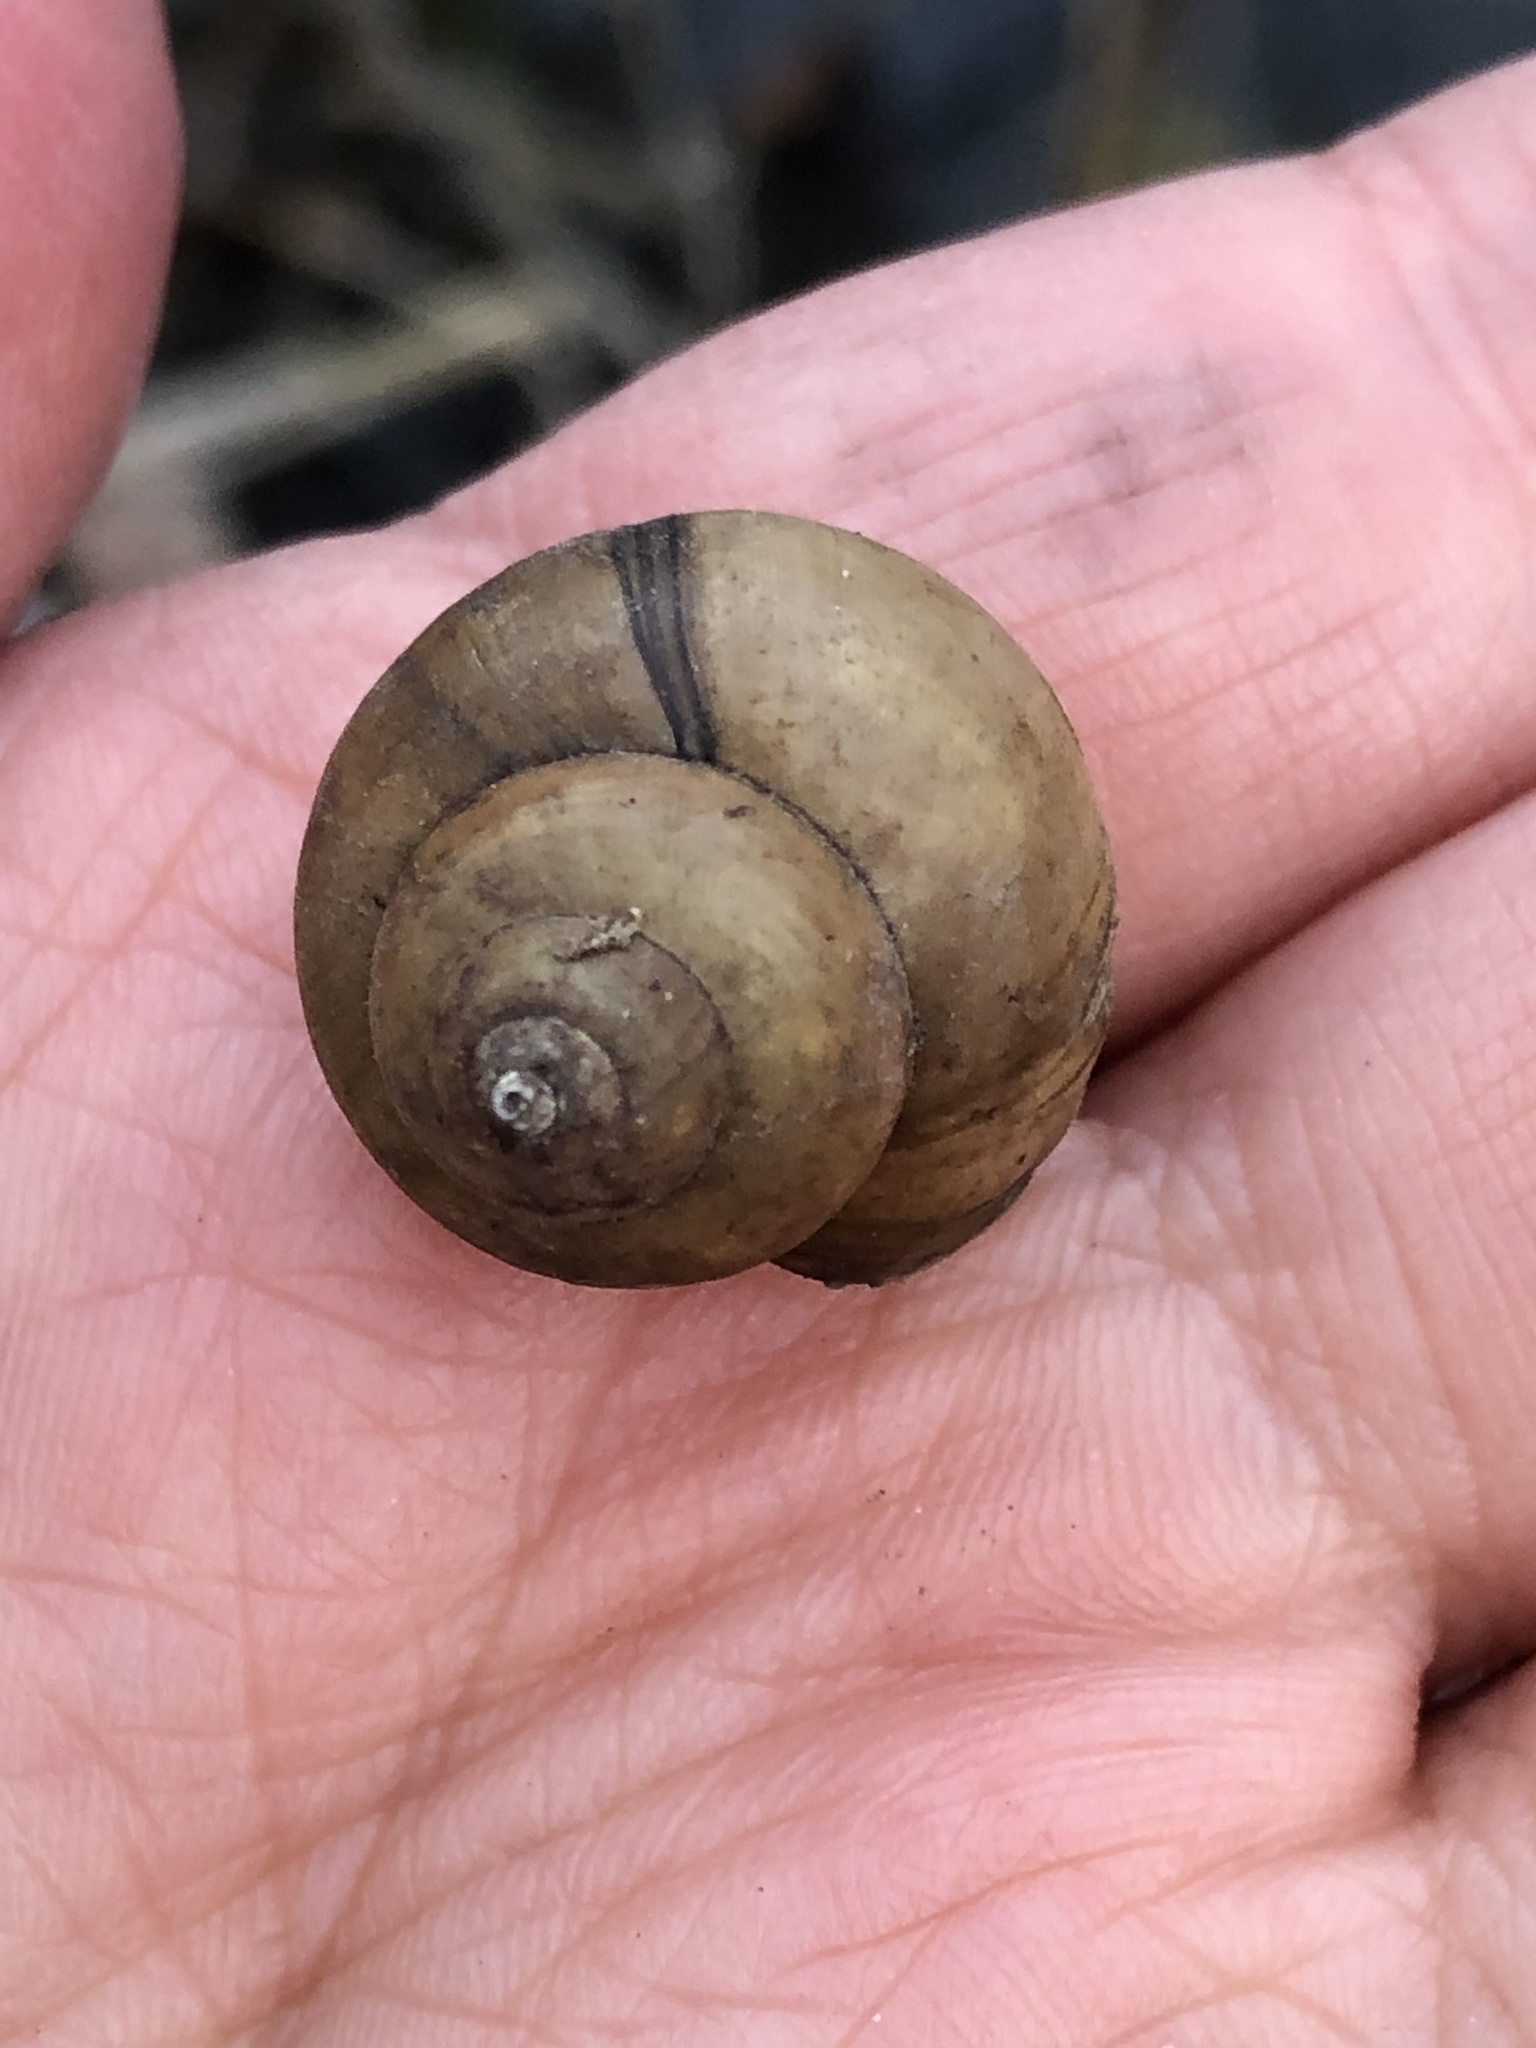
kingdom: Animalia
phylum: Mollusca
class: Gastropoda
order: Architaenioglossa
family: Viviparidae
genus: Cipangopaludina
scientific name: Cipangopaludina chinensis
